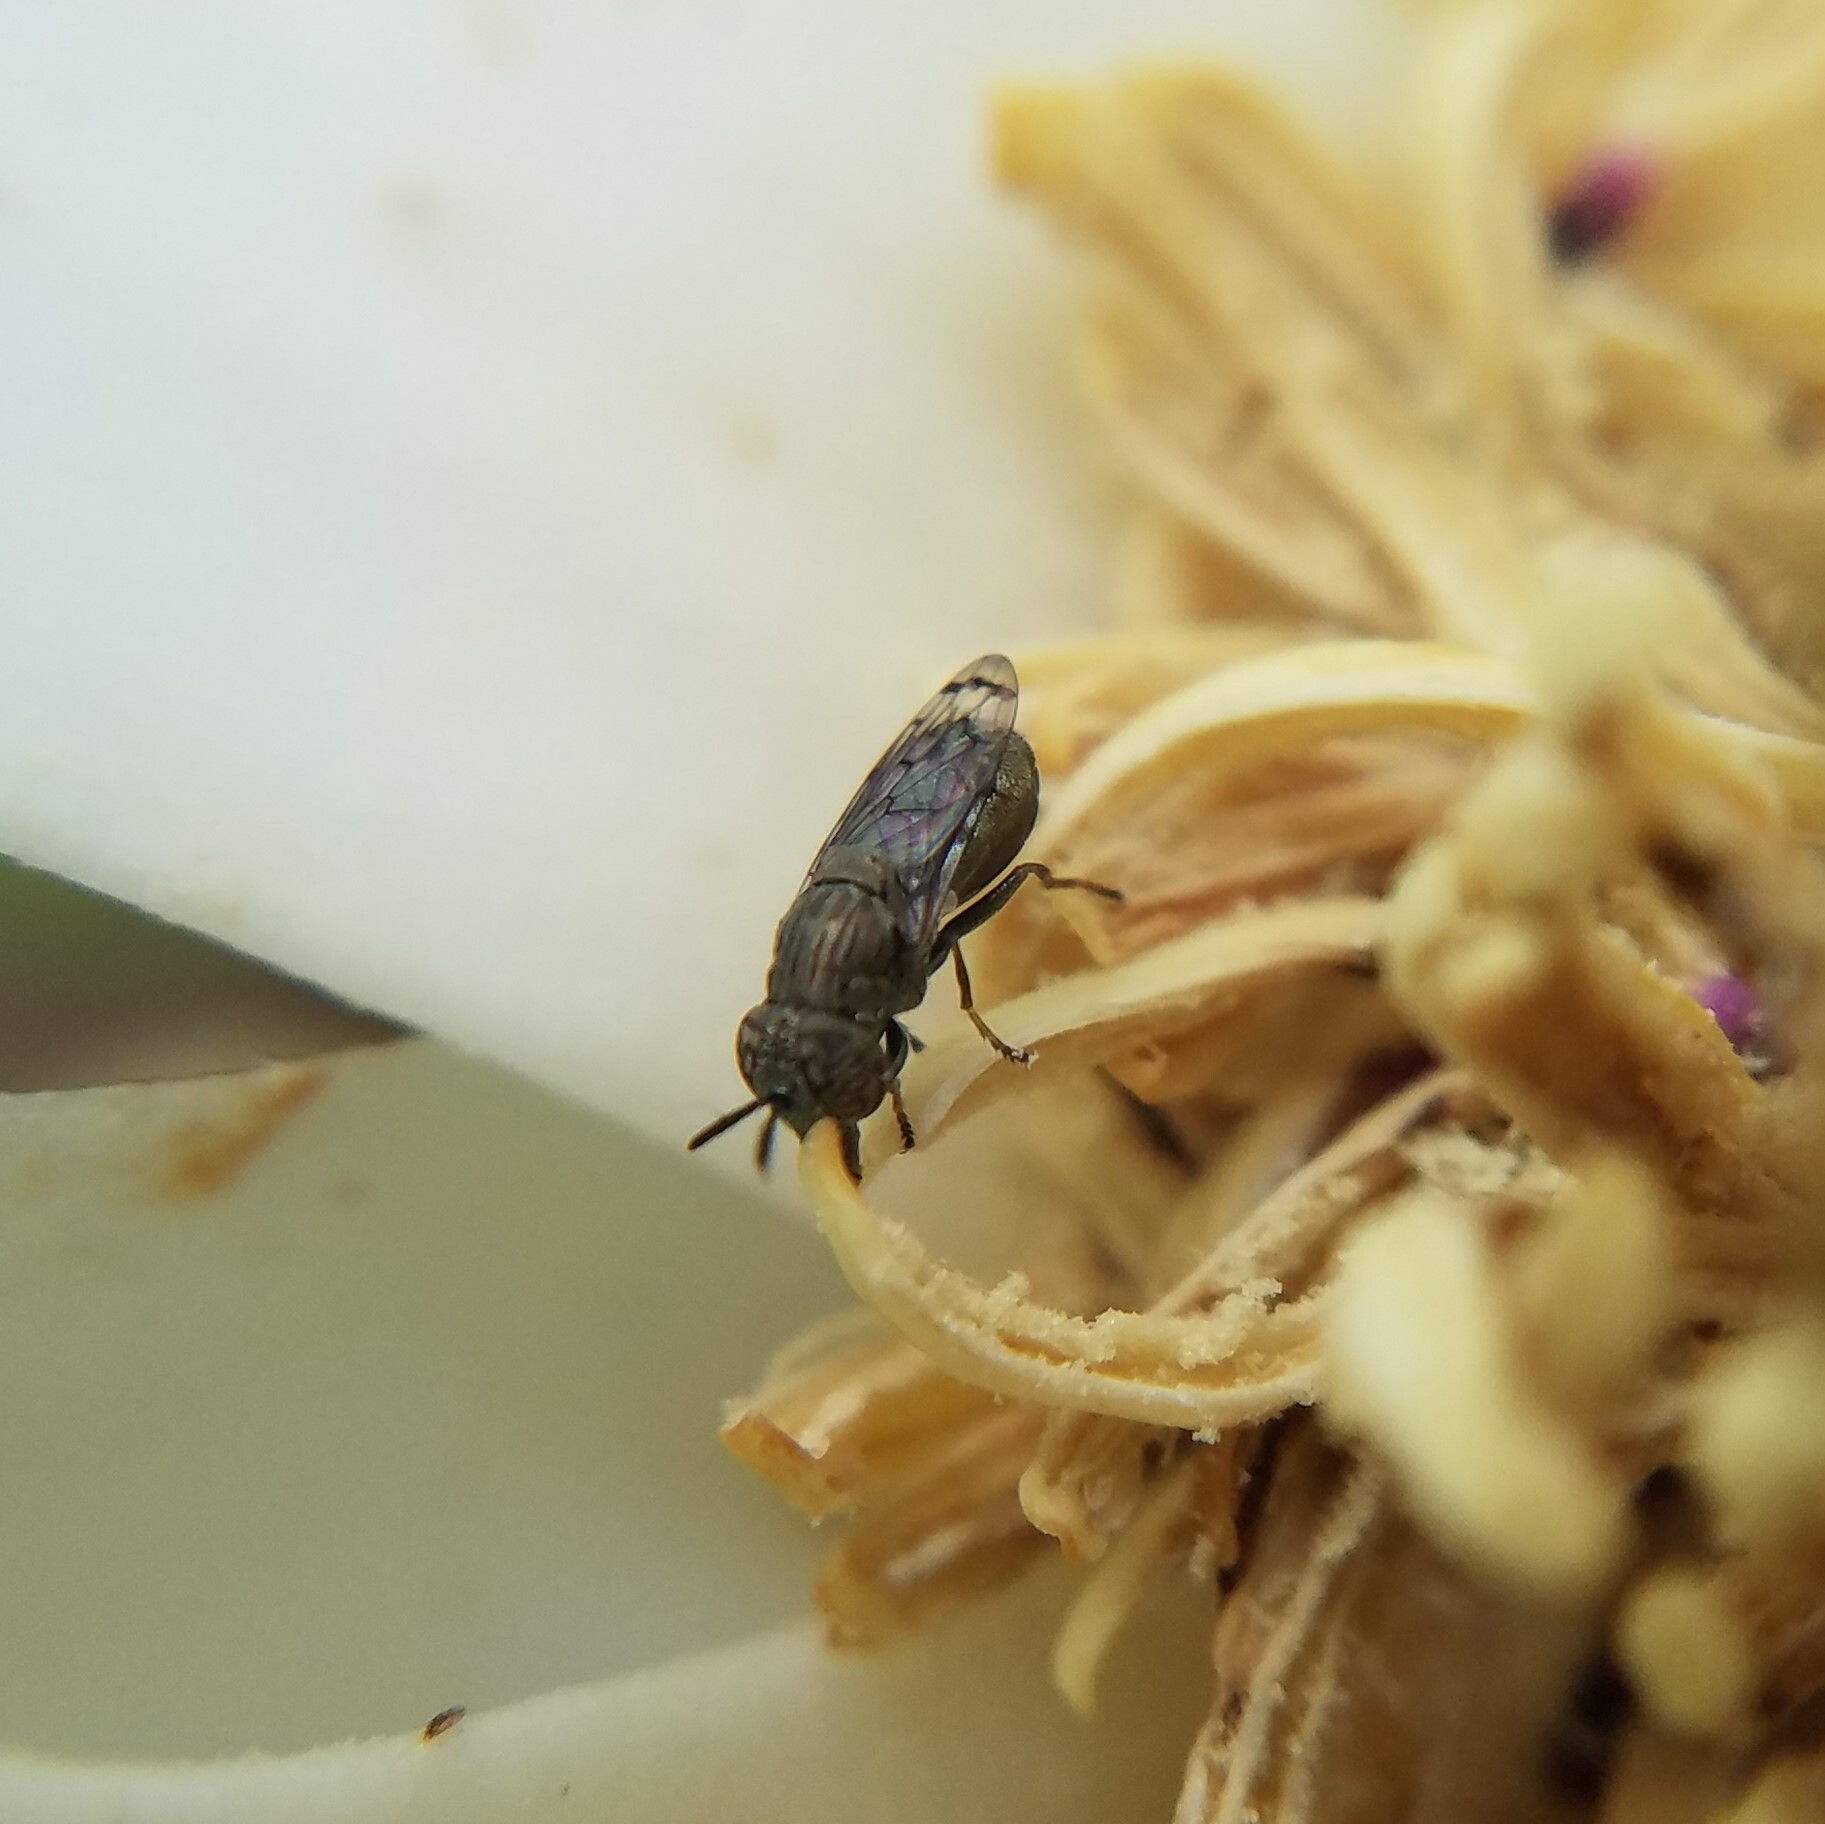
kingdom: Animalia
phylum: Arthropoda
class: Insecta
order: Diptera
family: Syrphidae
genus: Orthonevra
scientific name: Orthonevra nitida
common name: Wavy mucksucker
